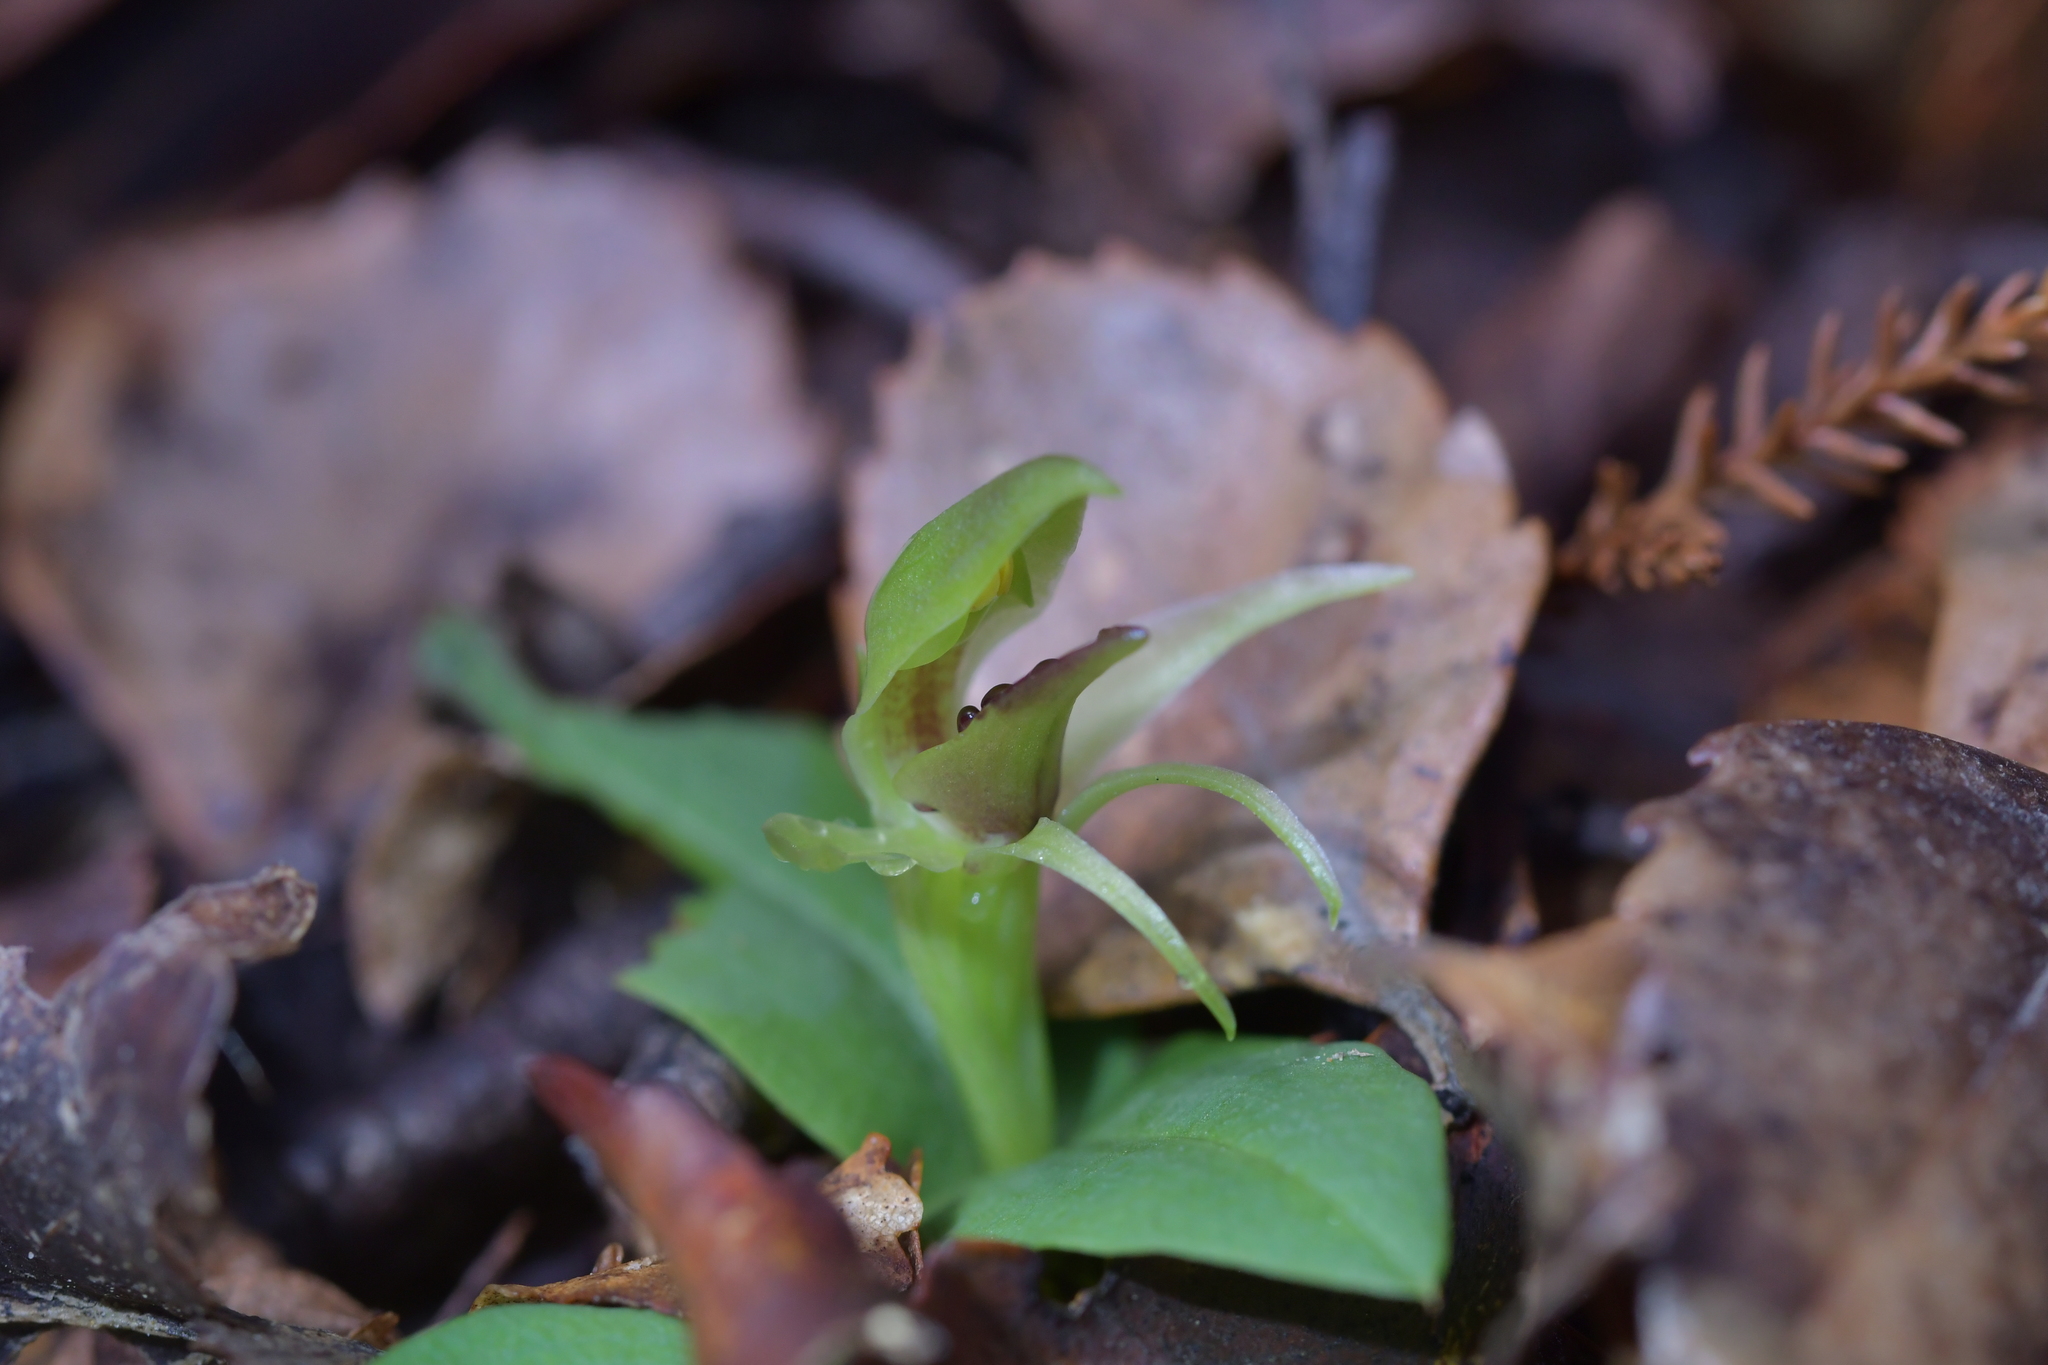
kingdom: Plantae
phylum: Tracheophyta
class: Liliopsida
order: Asparagales
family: Orchidaceae
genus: Chiloglottis
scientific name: Chiloglottis cornuta
